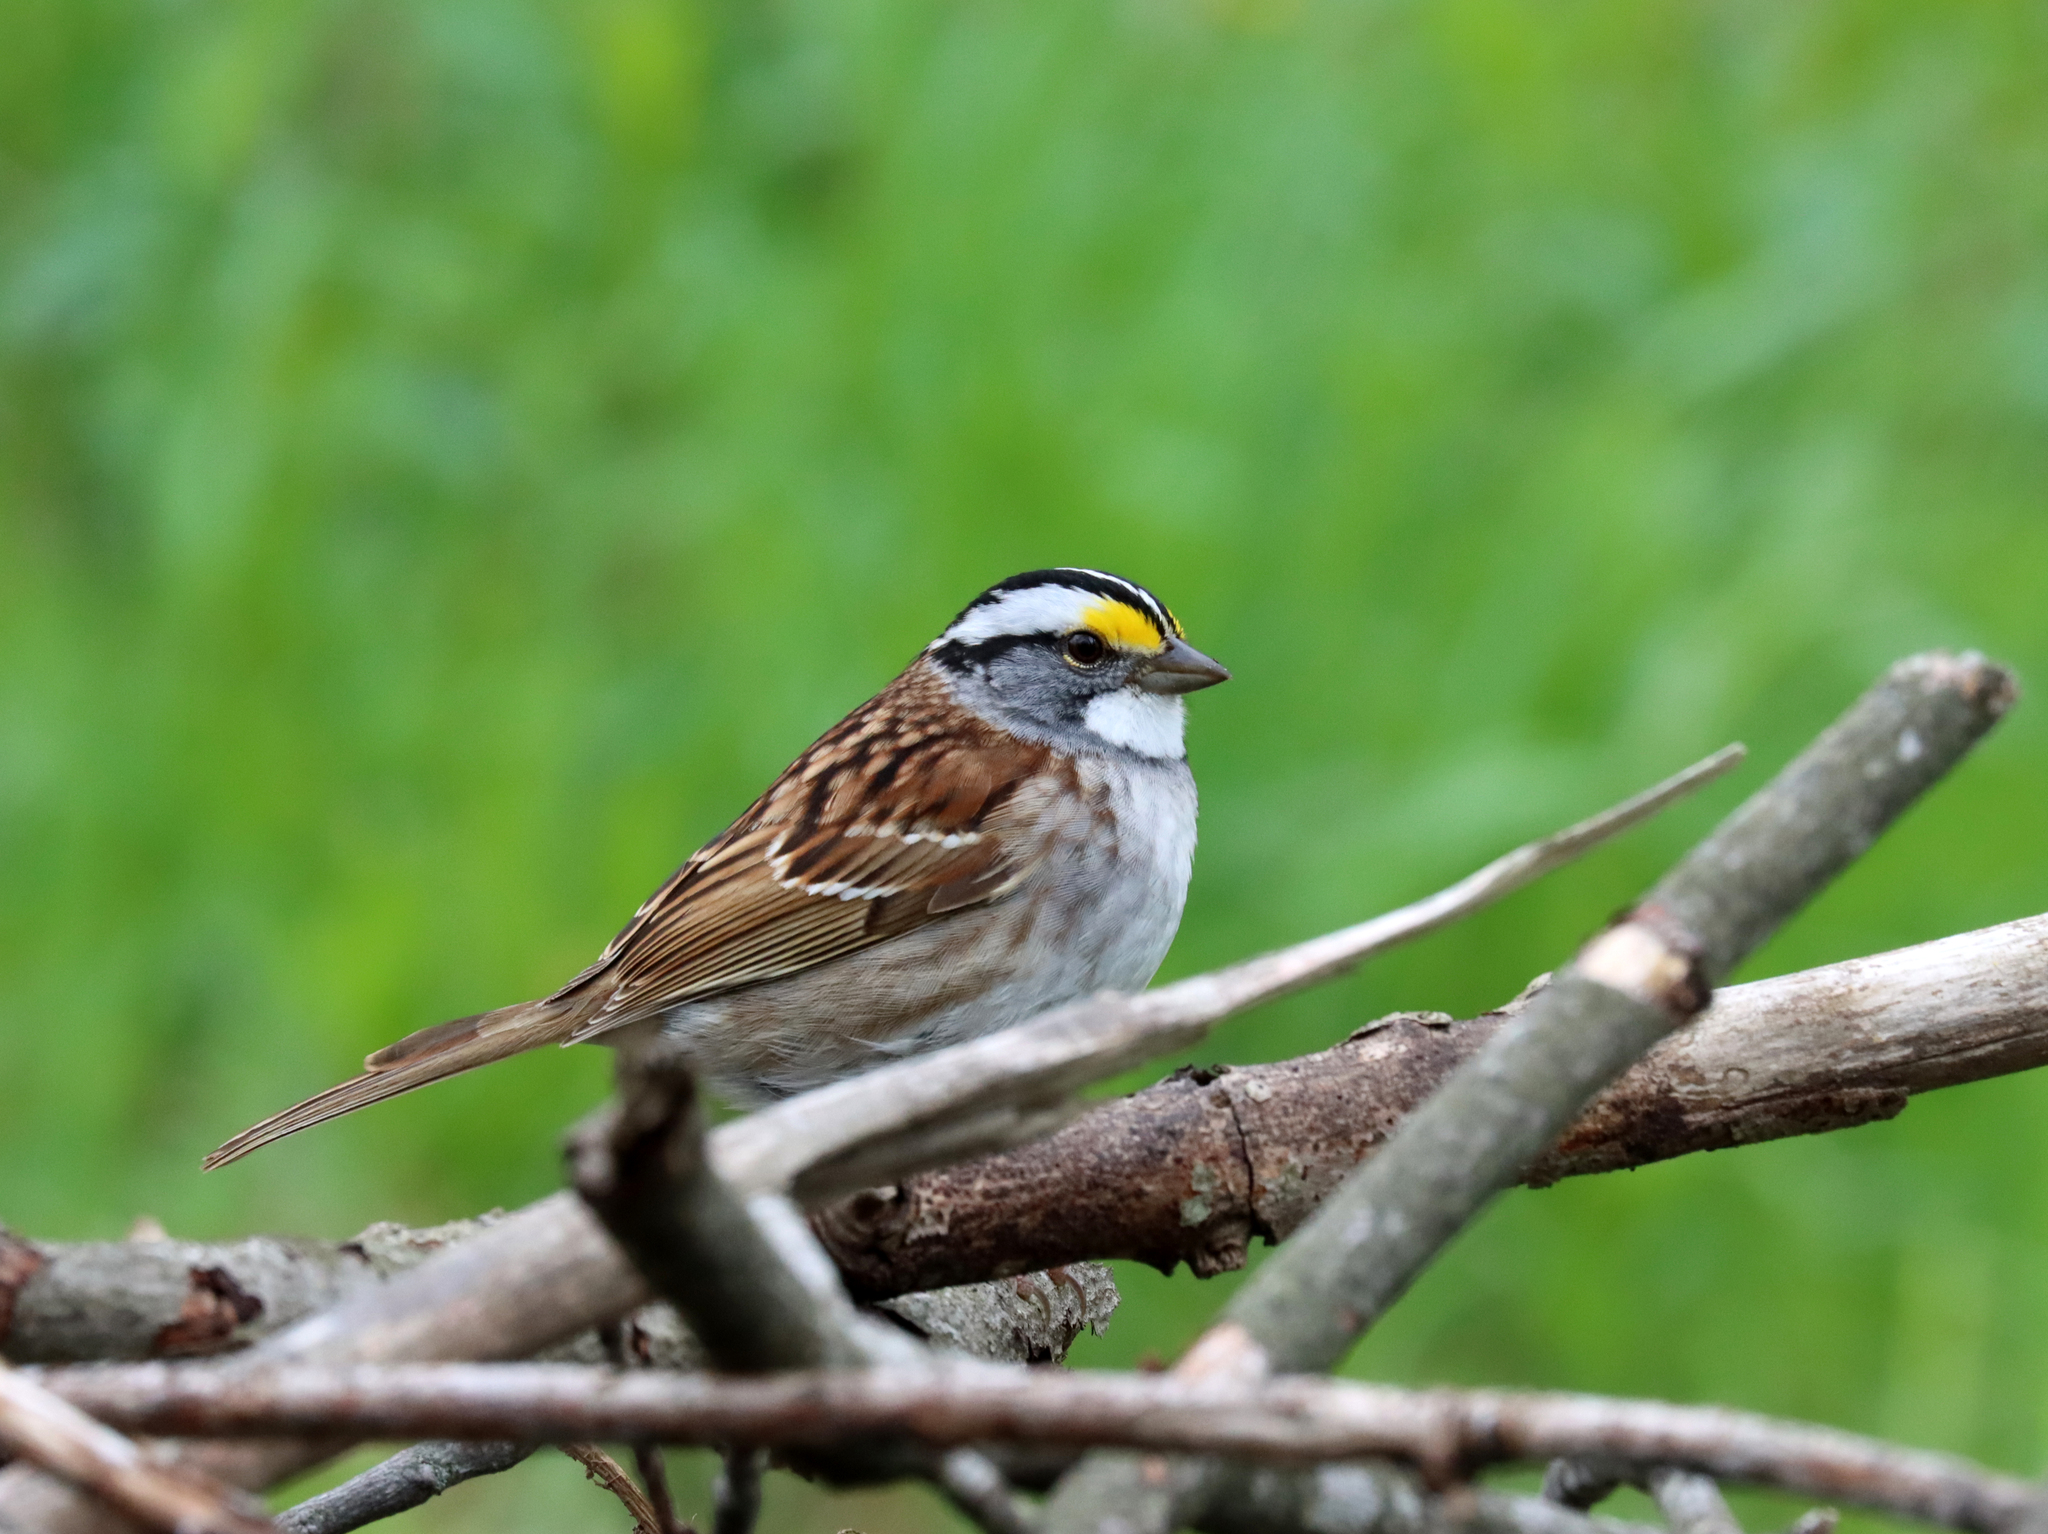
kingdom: Animalia
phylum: Chordata
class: Aves
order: Passeriformes
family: Passerellidae
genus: Zonotrichia
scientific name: Zonotrichia albicollis
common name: White-throated sparrow
